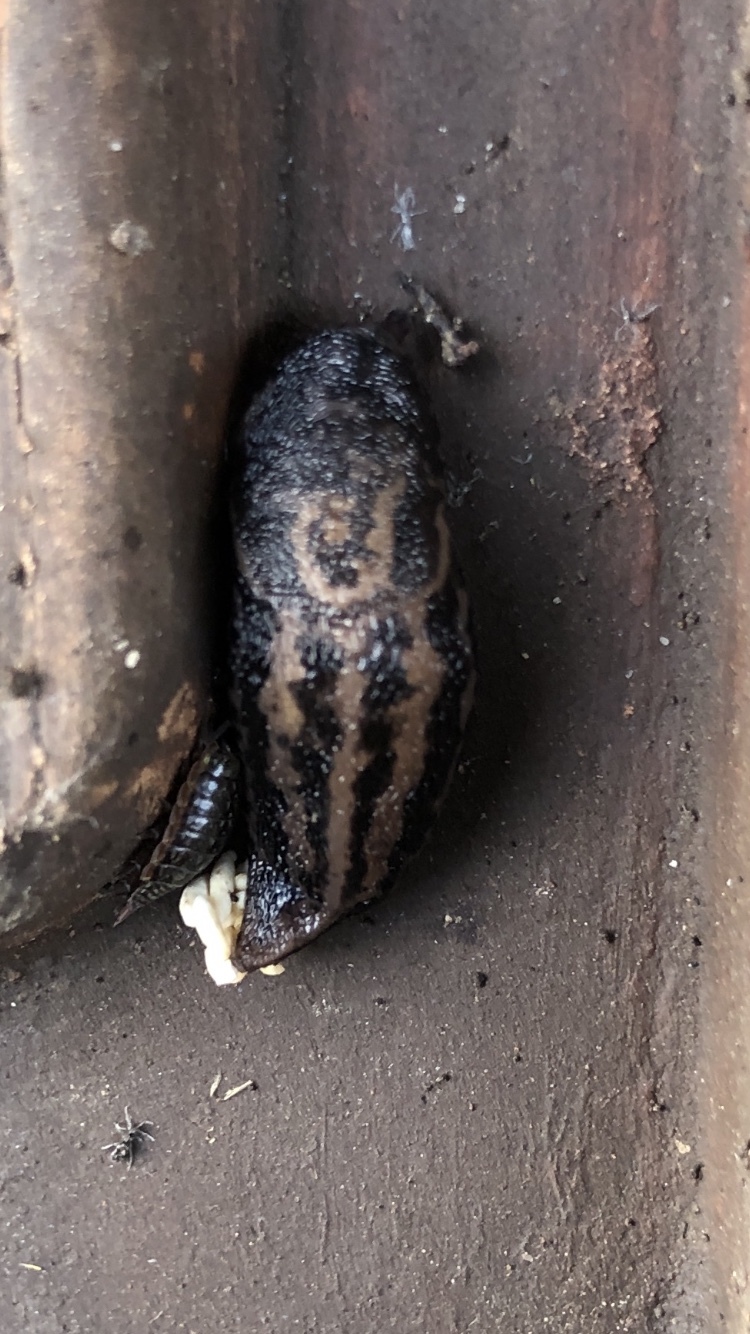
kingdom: Animalia
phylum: Mollusca
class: Gastropoda
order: Stylommatophora
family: Limacidae
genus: Limax
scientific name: Limax maximus
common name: Great grey slug
